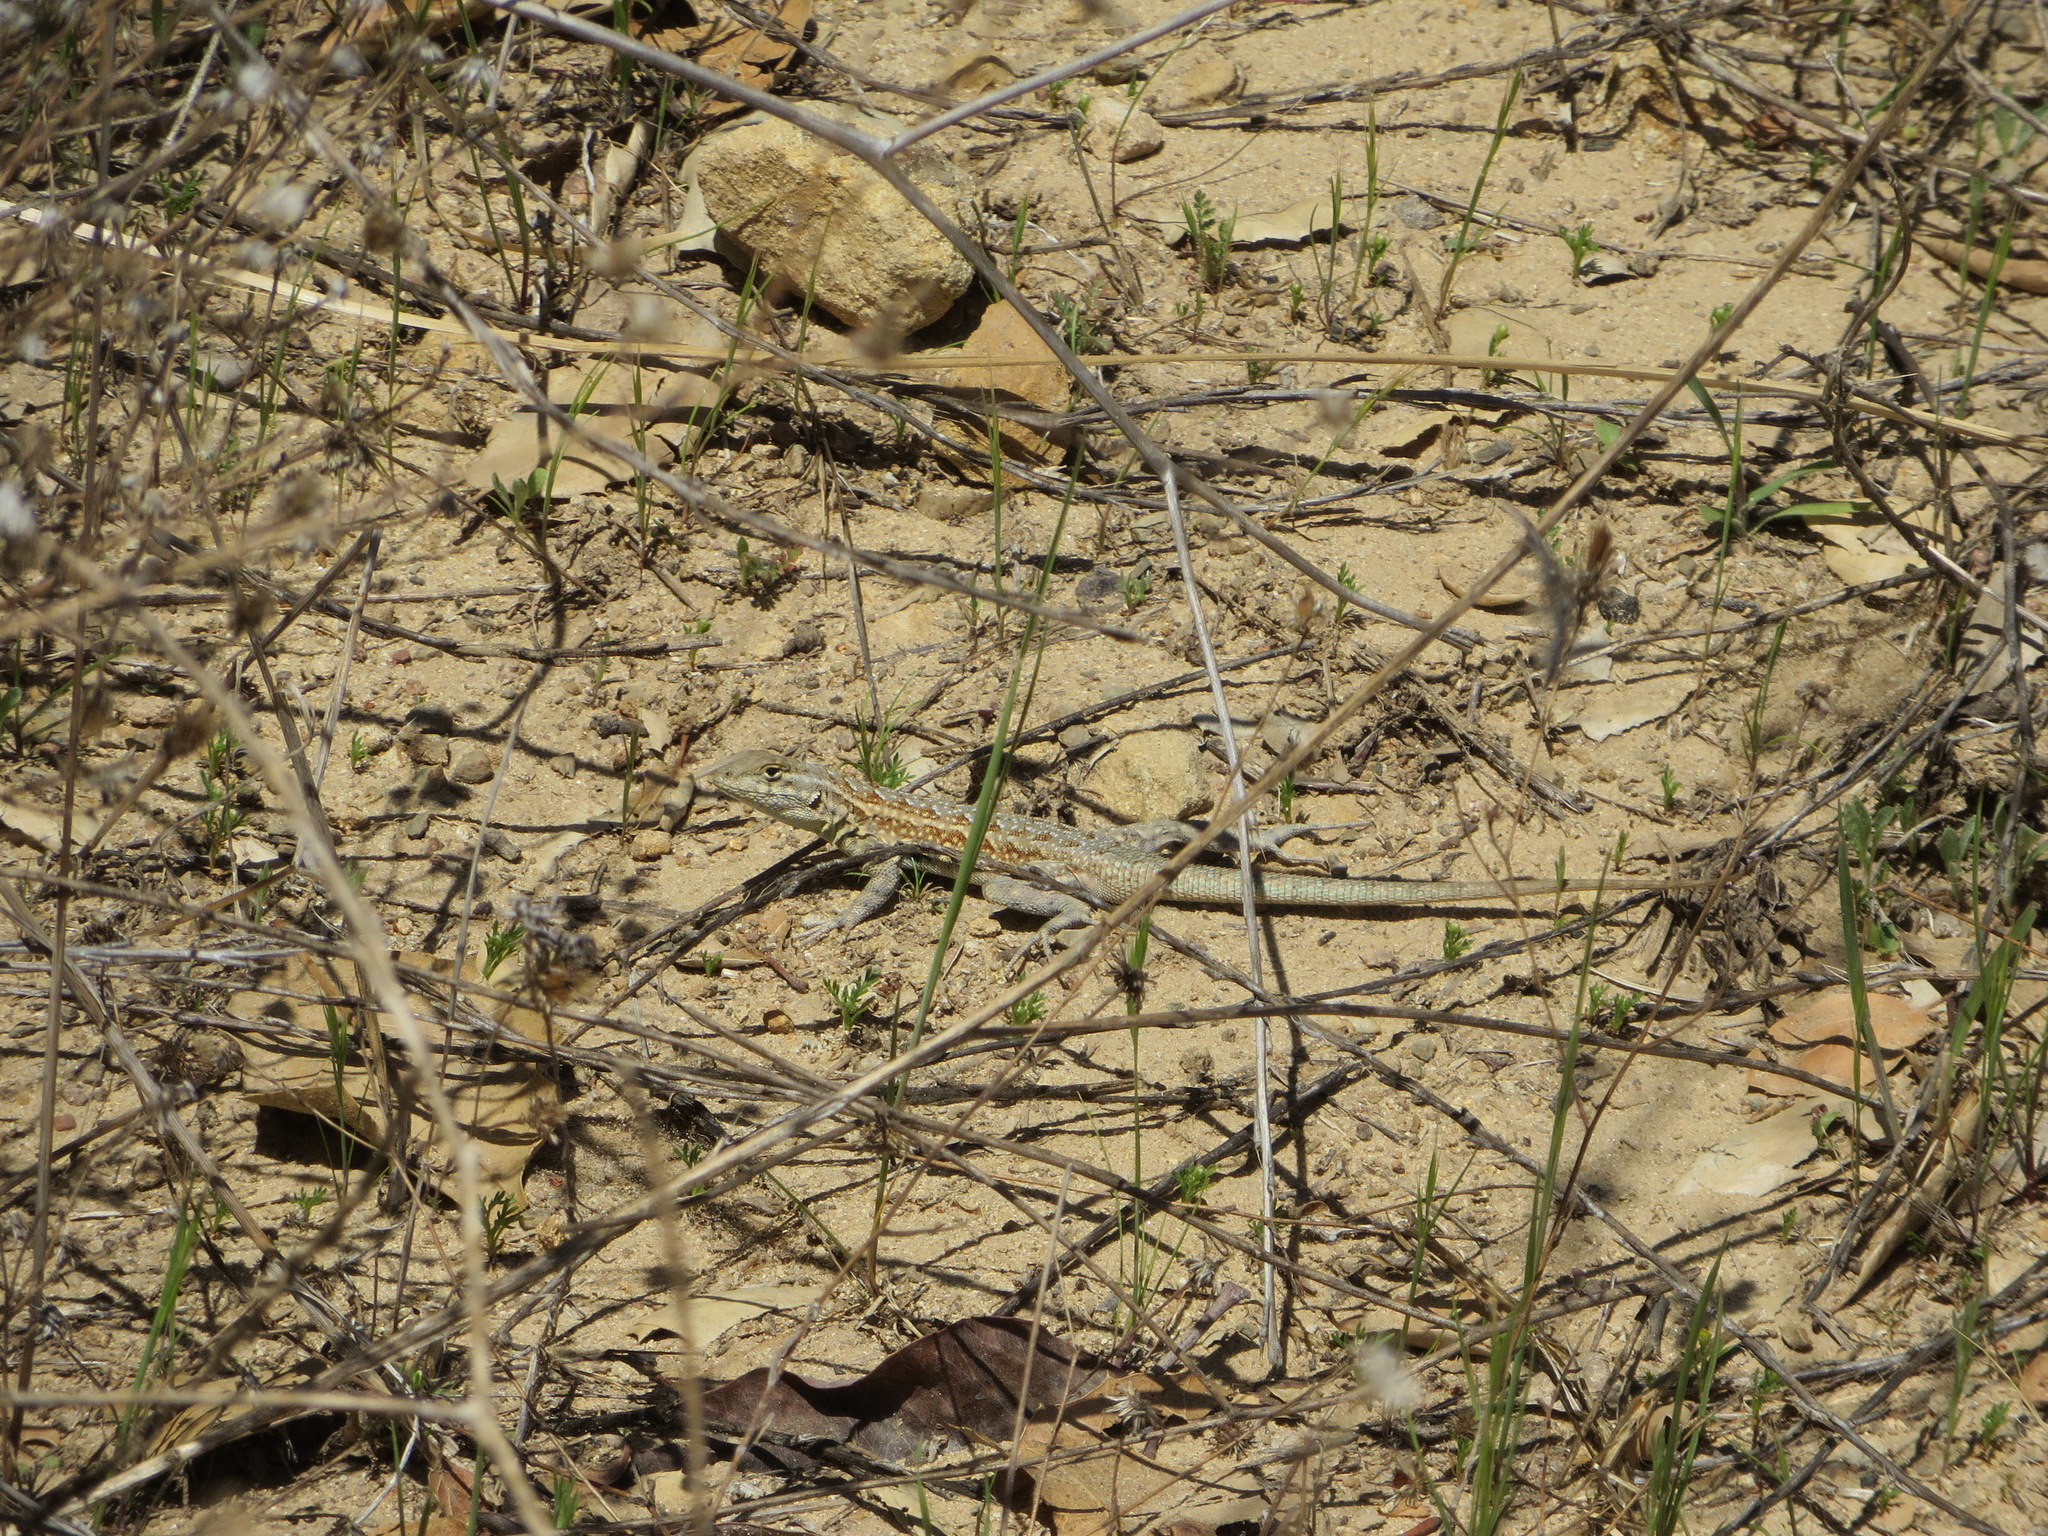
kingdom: Animalia
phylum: Chordata
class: Squamata
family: Phrynosomatidae
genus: Uta
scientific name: Uta stansburiana
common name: Side-blotched lizard
